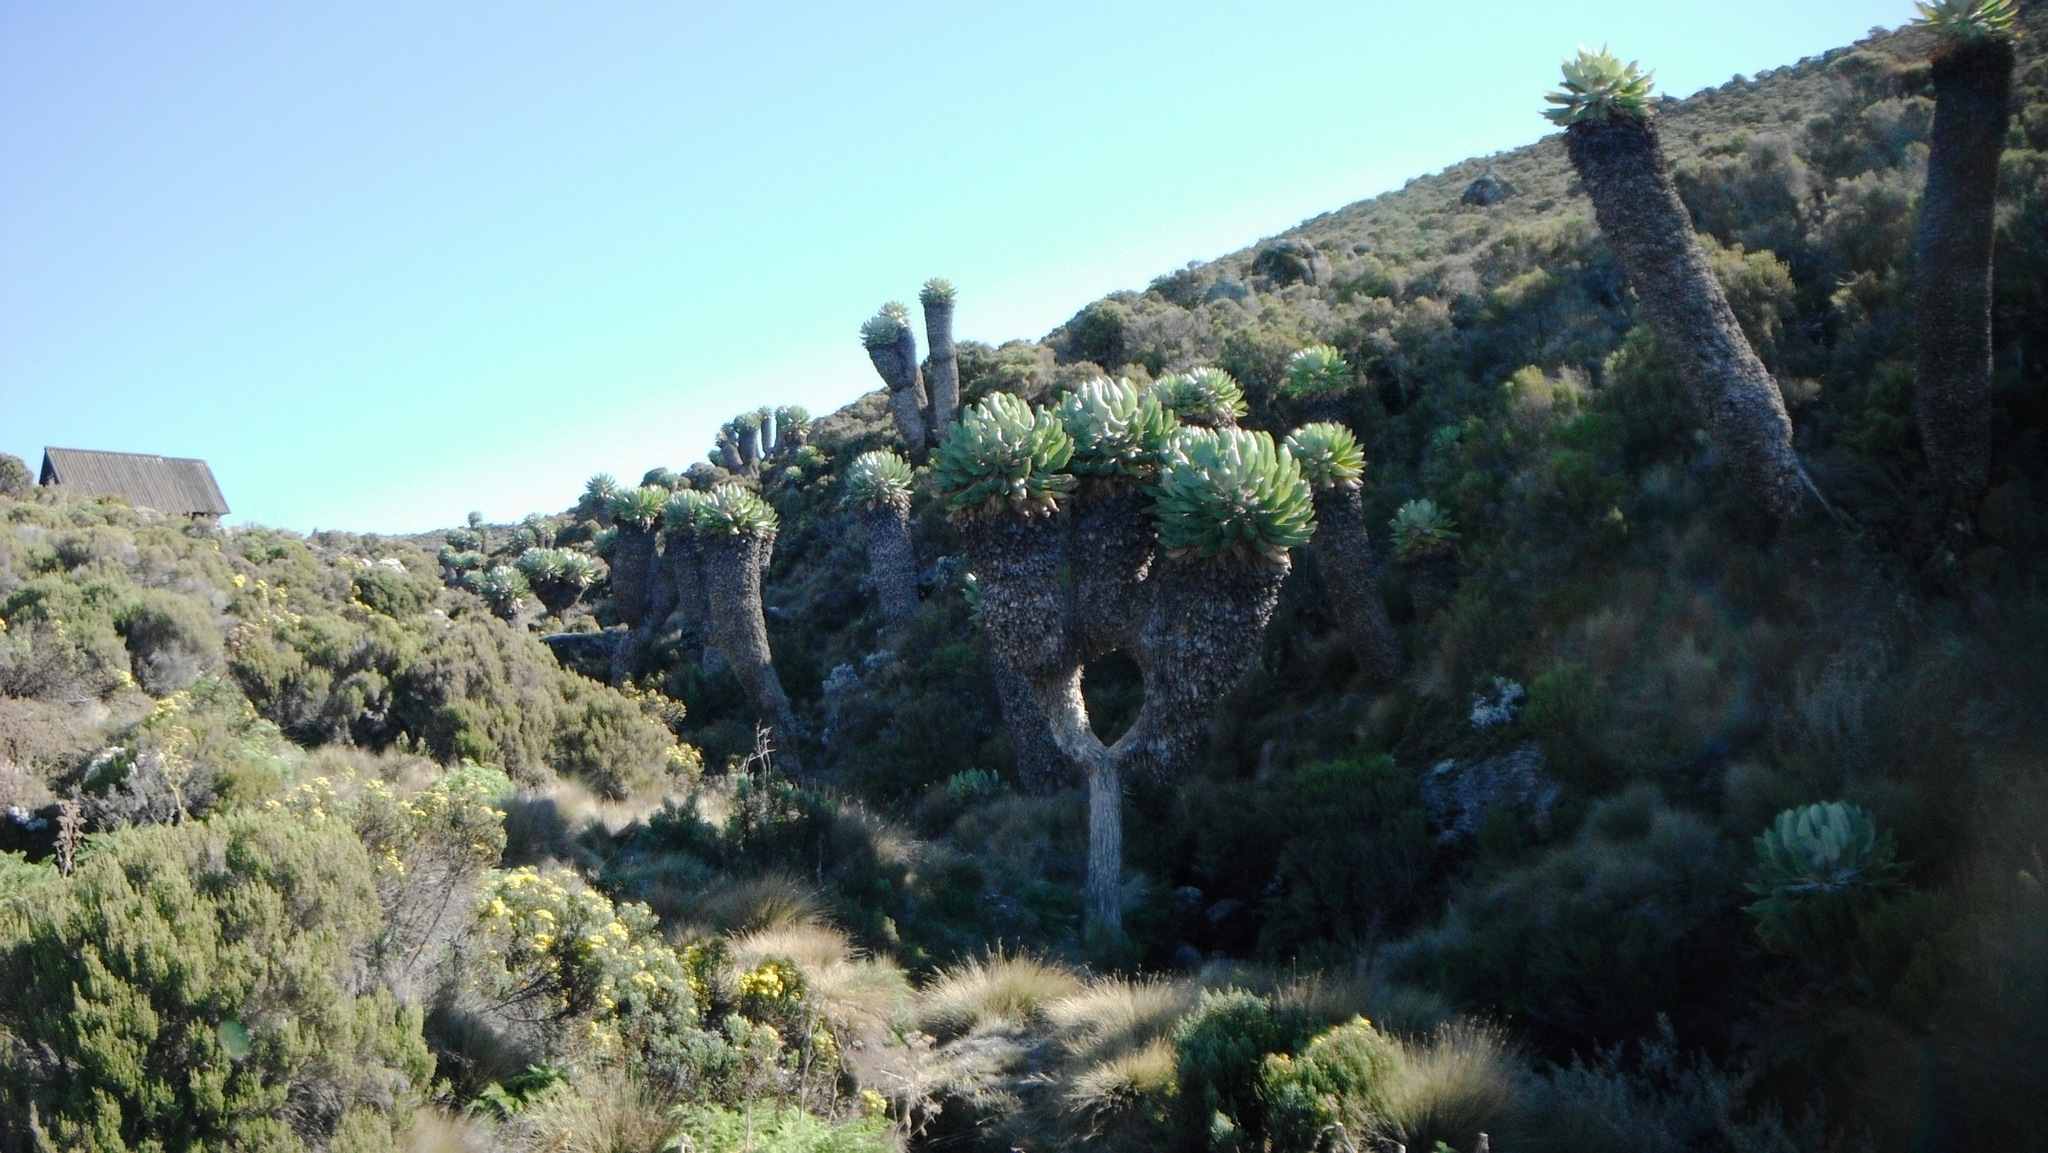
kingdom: Plantae
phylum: Tracheophyta
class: Magnoliopsida
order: Asterales
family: Asteraceae
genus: Dendrosenecio
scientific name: Dendrosenecio kilimanjari
